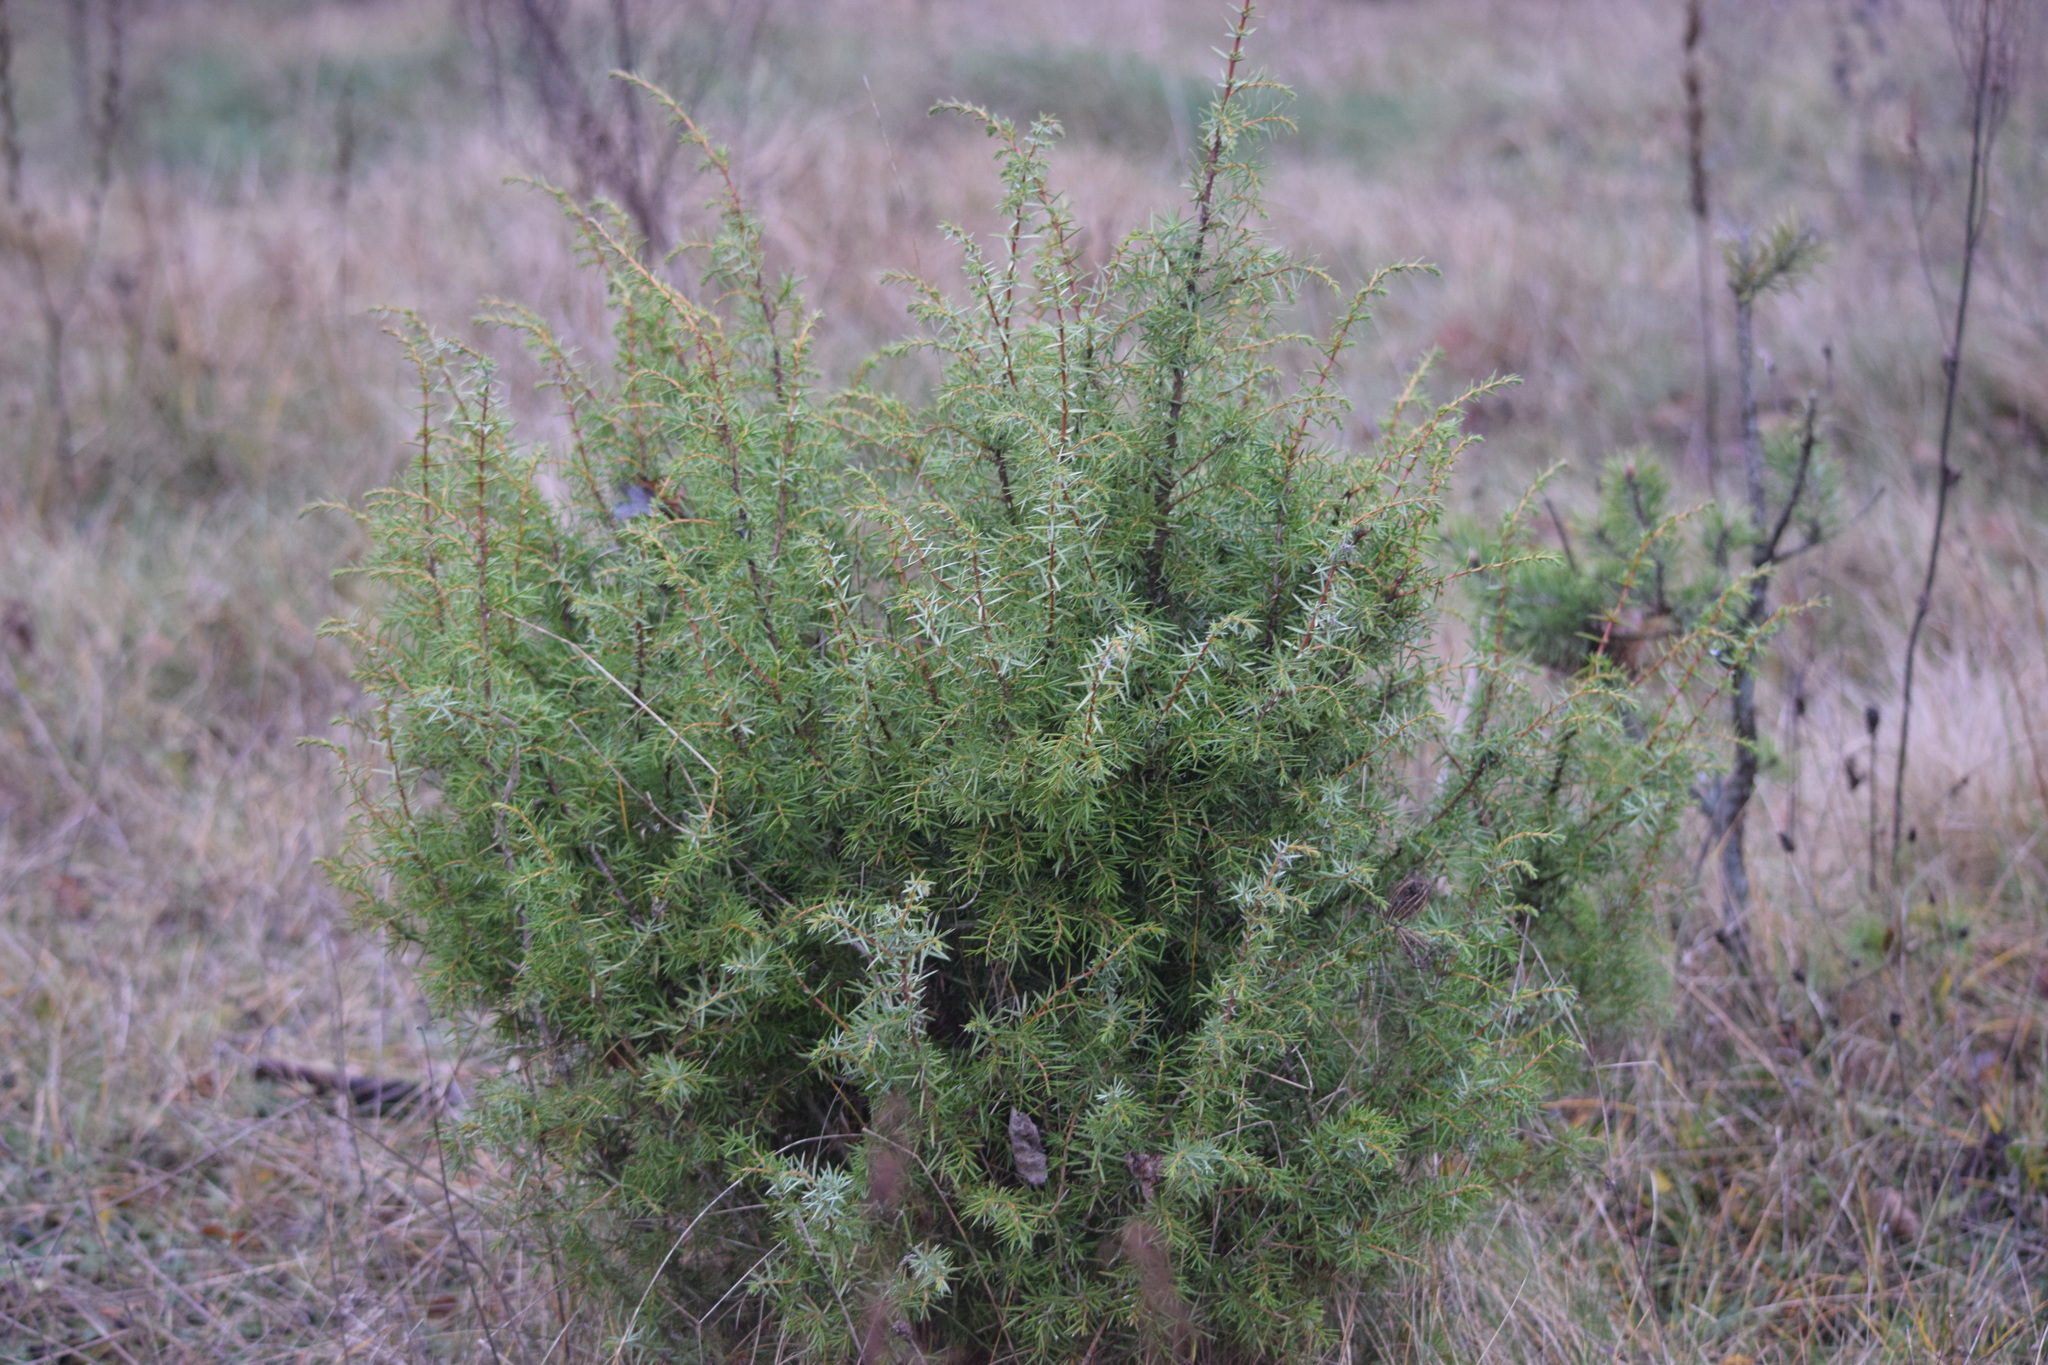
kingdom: Plantae
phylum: Tracheophyta
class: Pinopsida
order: Pinales
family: Cupressaceae
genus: Juniperus
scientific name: Juniperus communis
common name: Common juniper
